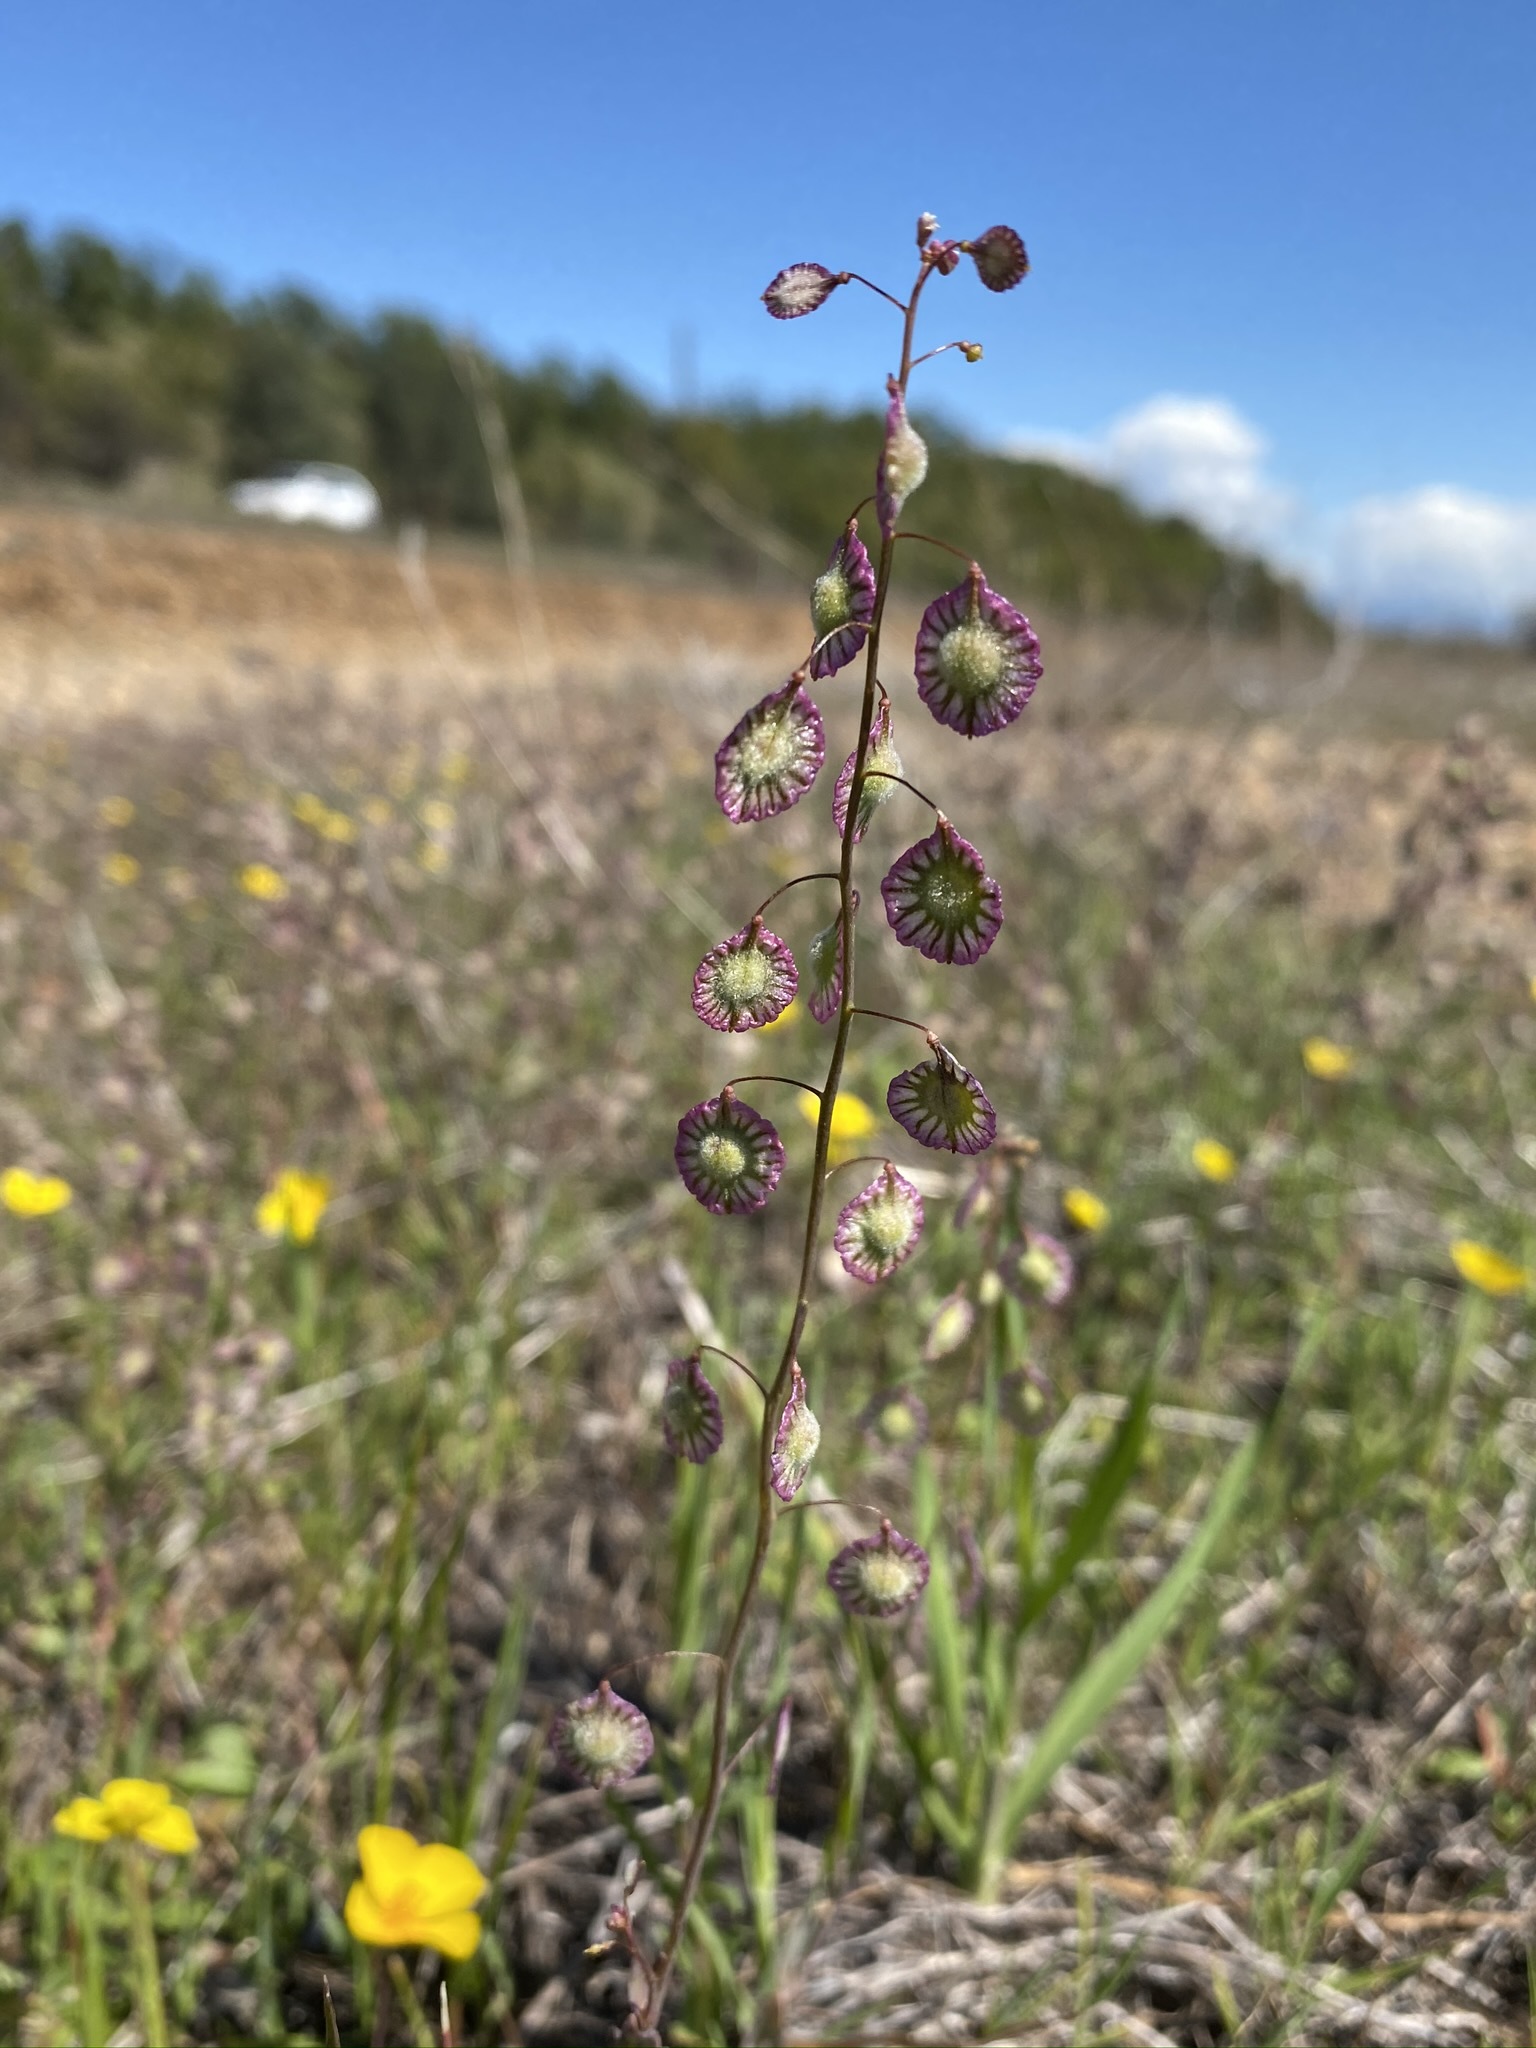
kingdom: Plantae
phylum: Tracheophyta
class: Magnoliopsida
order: Brassicales
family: Brassicaceae
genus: Thysanocarpus
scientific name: Thysanocarpus radians
